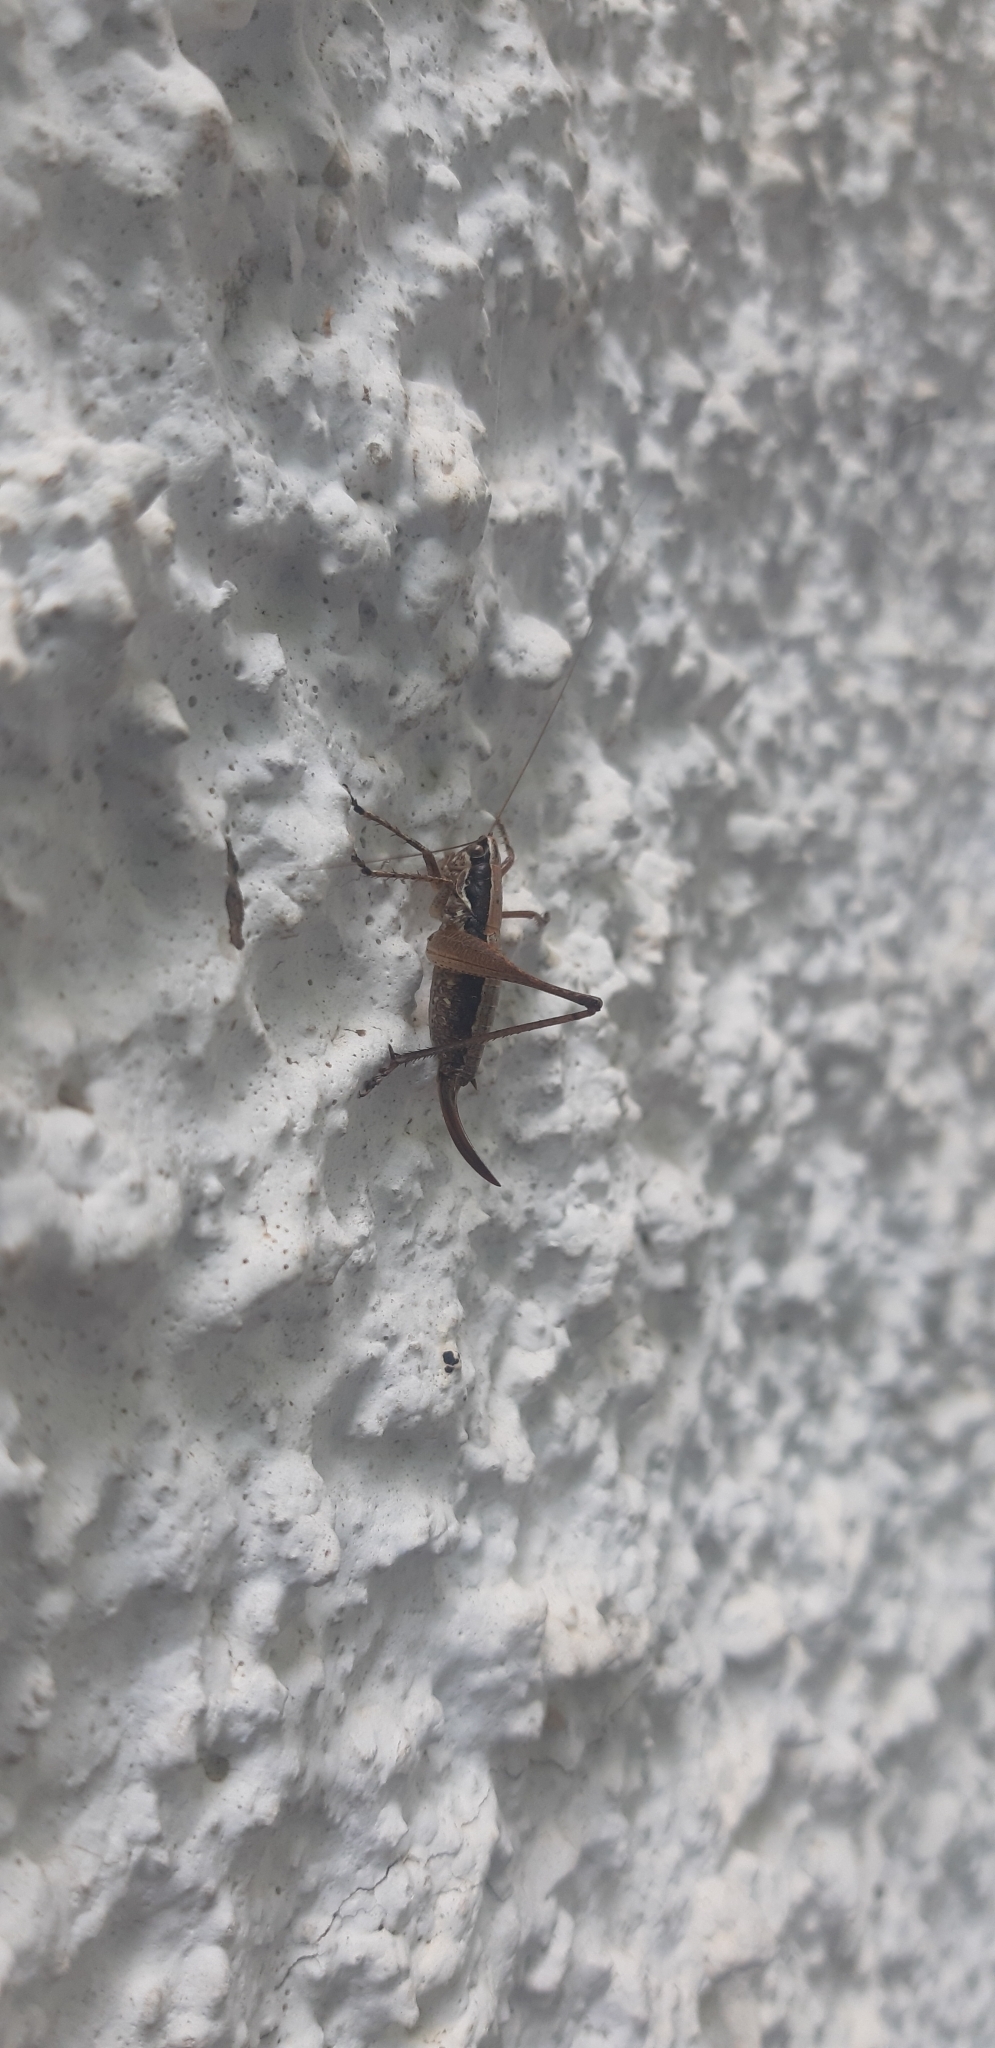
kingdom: Animalia
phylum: Arthropoda
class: Insecta
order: Orthoptera
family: Tettigoniidae
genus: Yersinella
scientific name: Yersinella raymondii
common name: Raymond's bush-cricket
